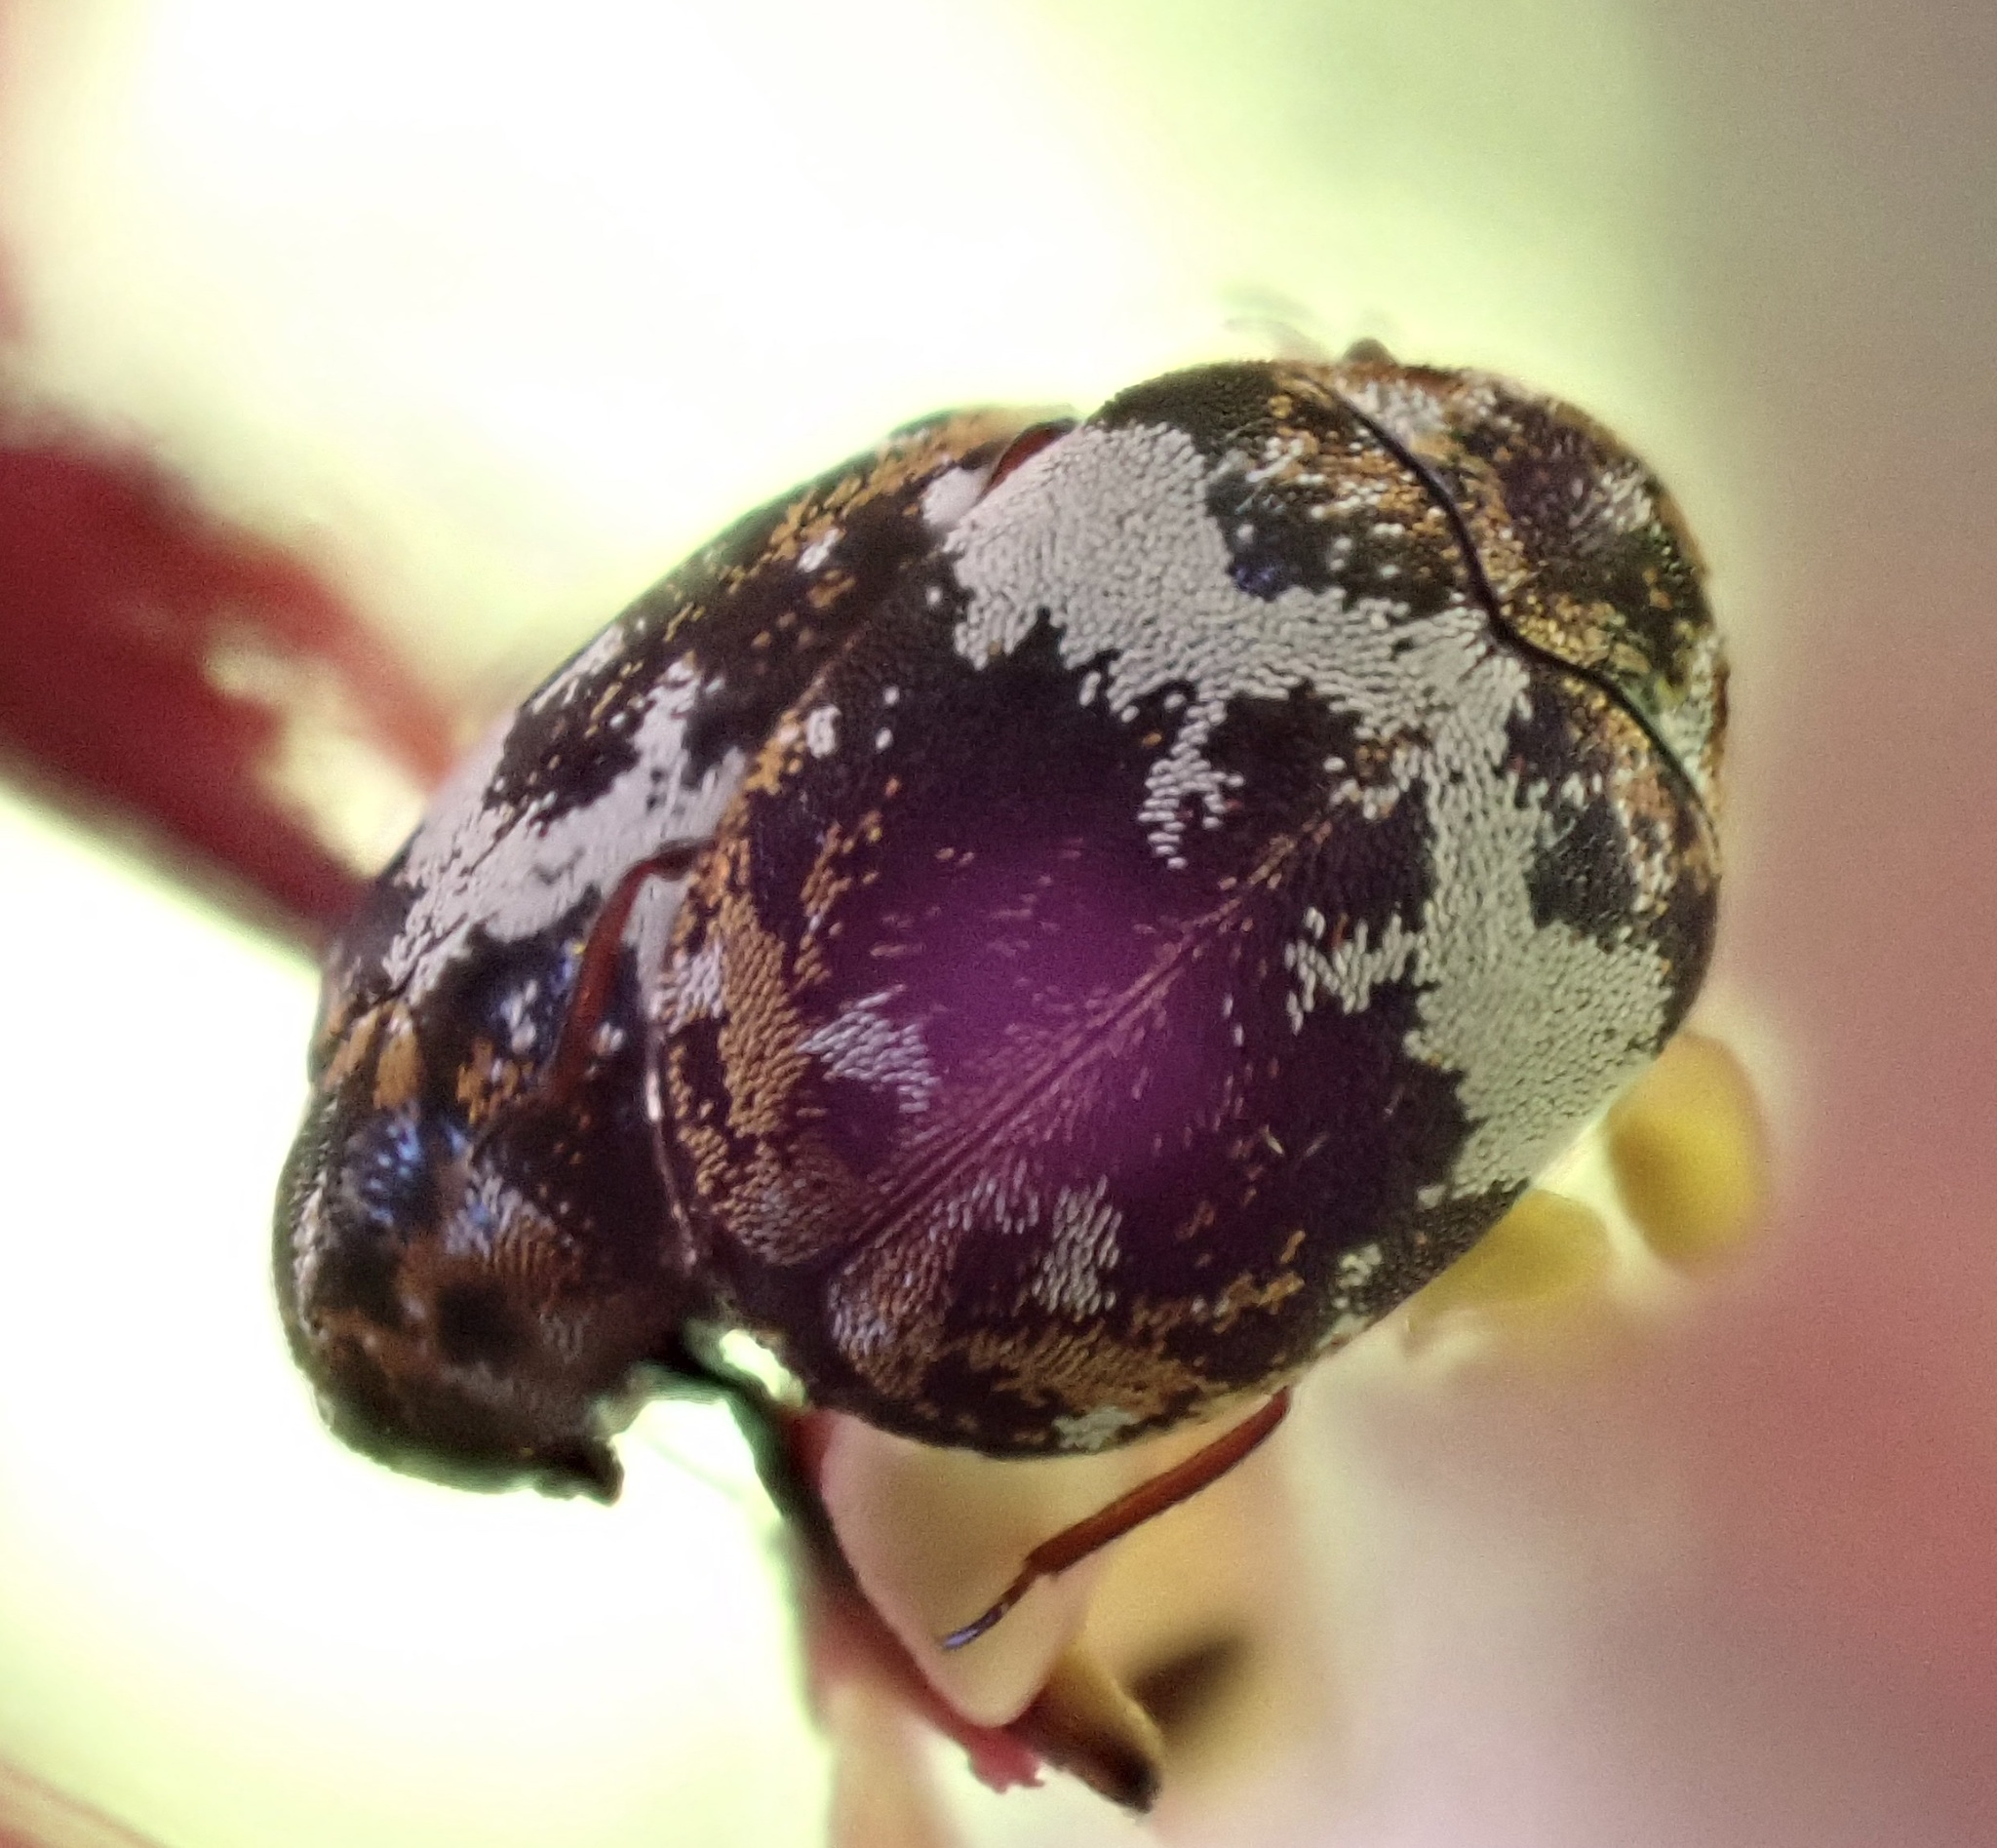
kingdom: Animalia
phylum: Arthropoda
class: Insecta
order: Coleoptera
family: Dermestidae
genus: Anthrenus
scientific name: Anthrenus pimpinellae
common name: Dermestid beetle
